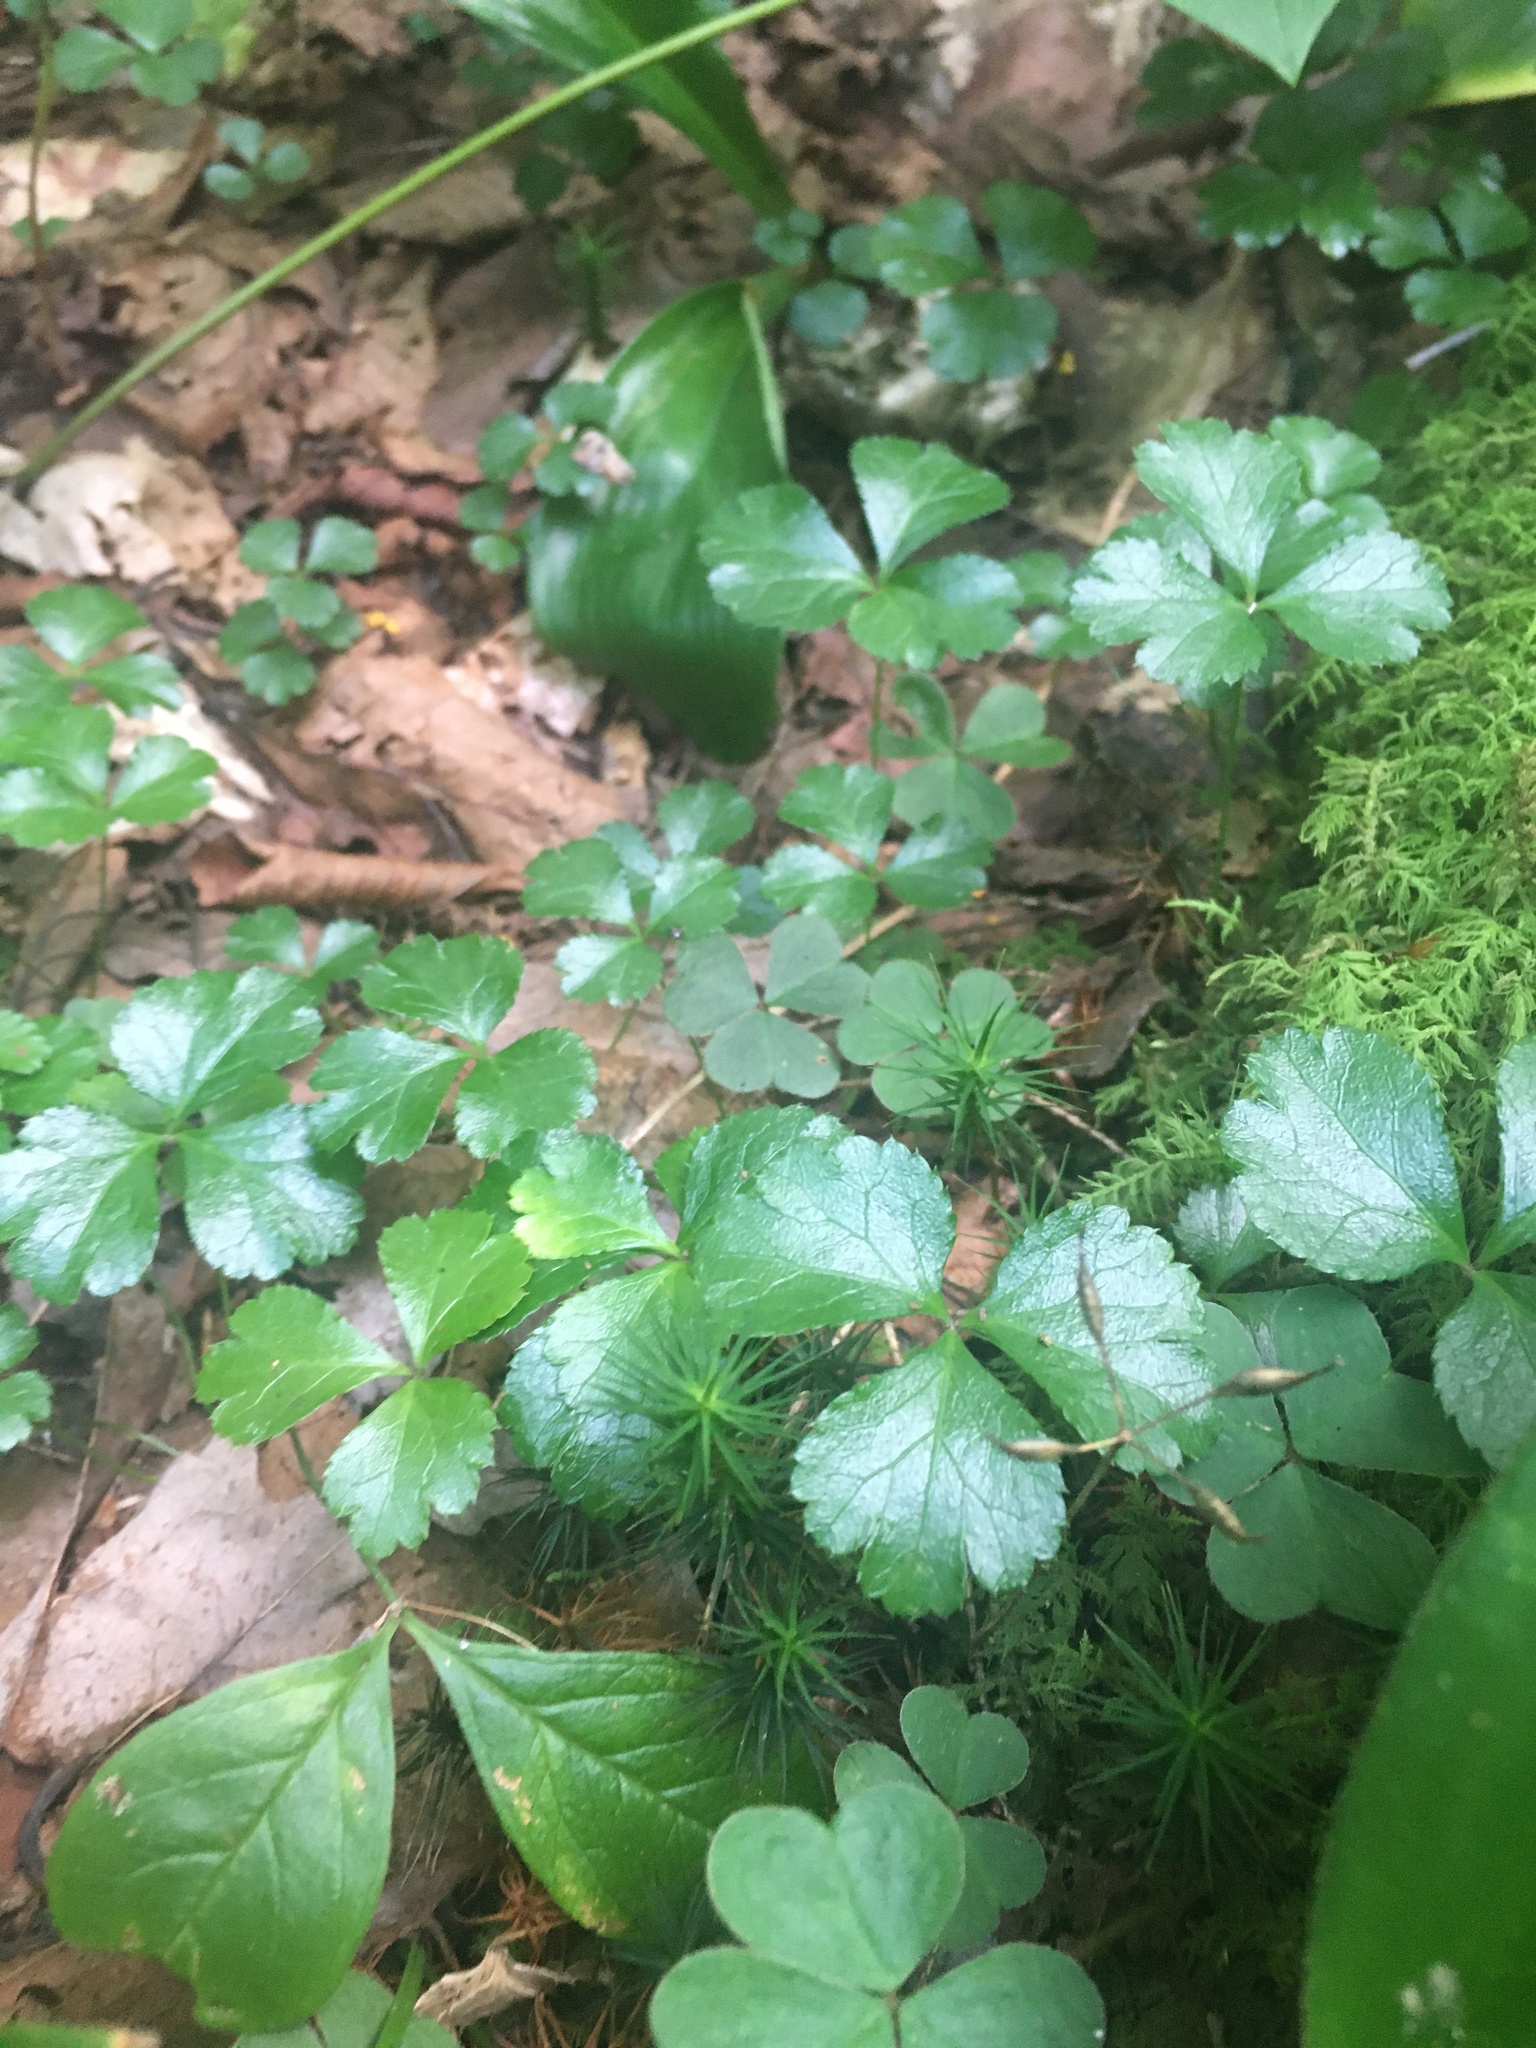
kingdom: Plantae
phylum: Tracheophyta
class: Magnoliopsida
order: Ranunculales
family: Ranunculaceae
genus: Coptis
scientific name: Coptis trifolia
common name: Canker-root
